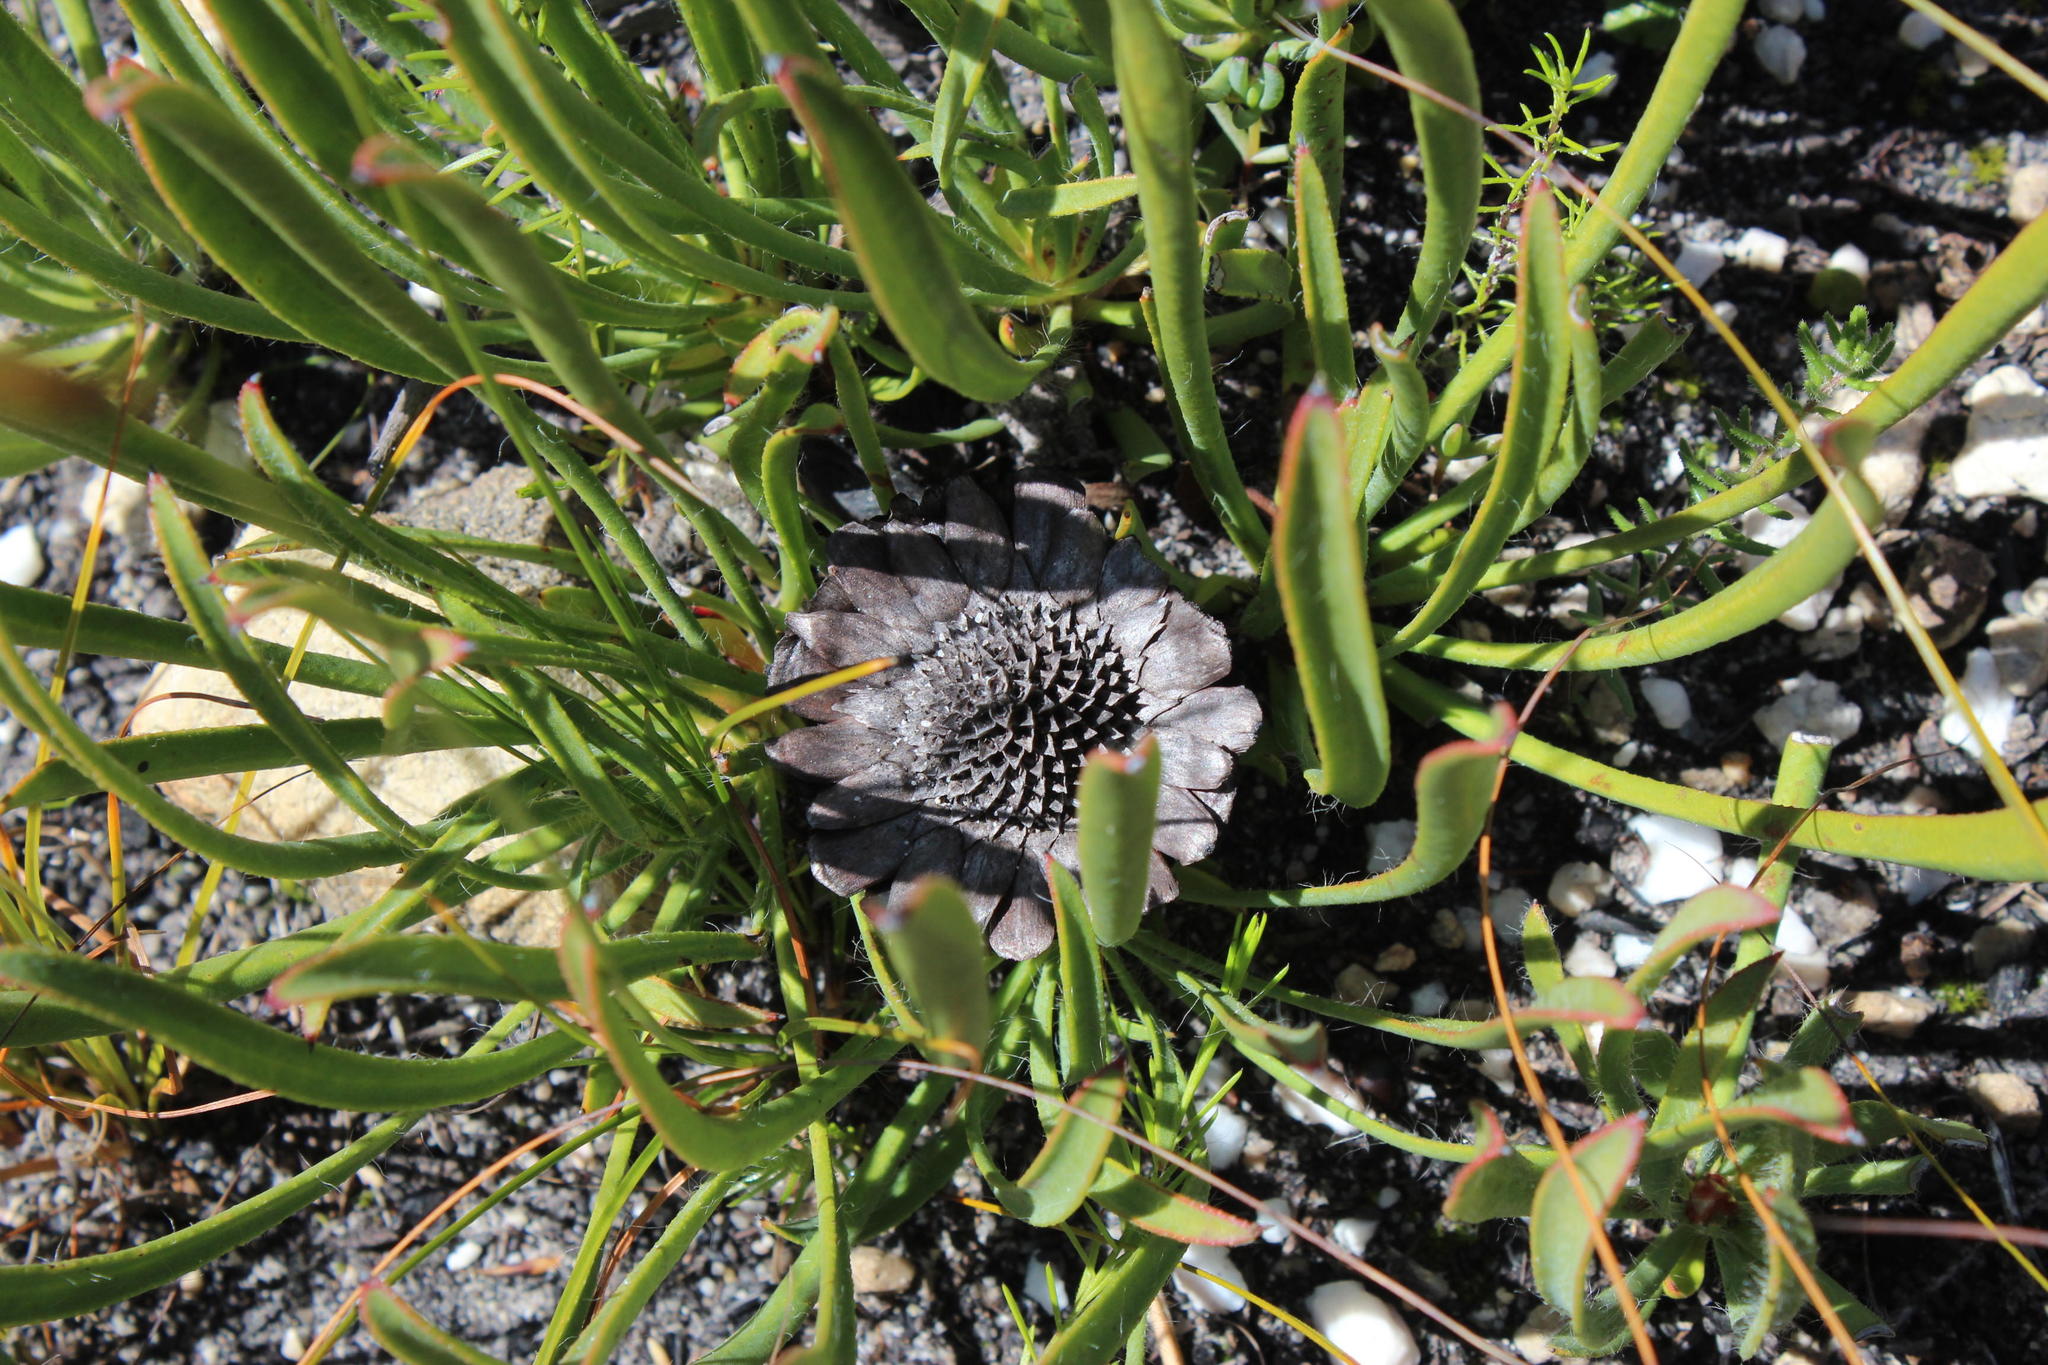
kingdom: Plantae
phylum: Tracheophyta
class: Magnoliopsida
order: Proteales
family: Proteaceae
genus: Protea
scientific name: Protea scabra
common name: Sandpaper-leaf sugarbush
